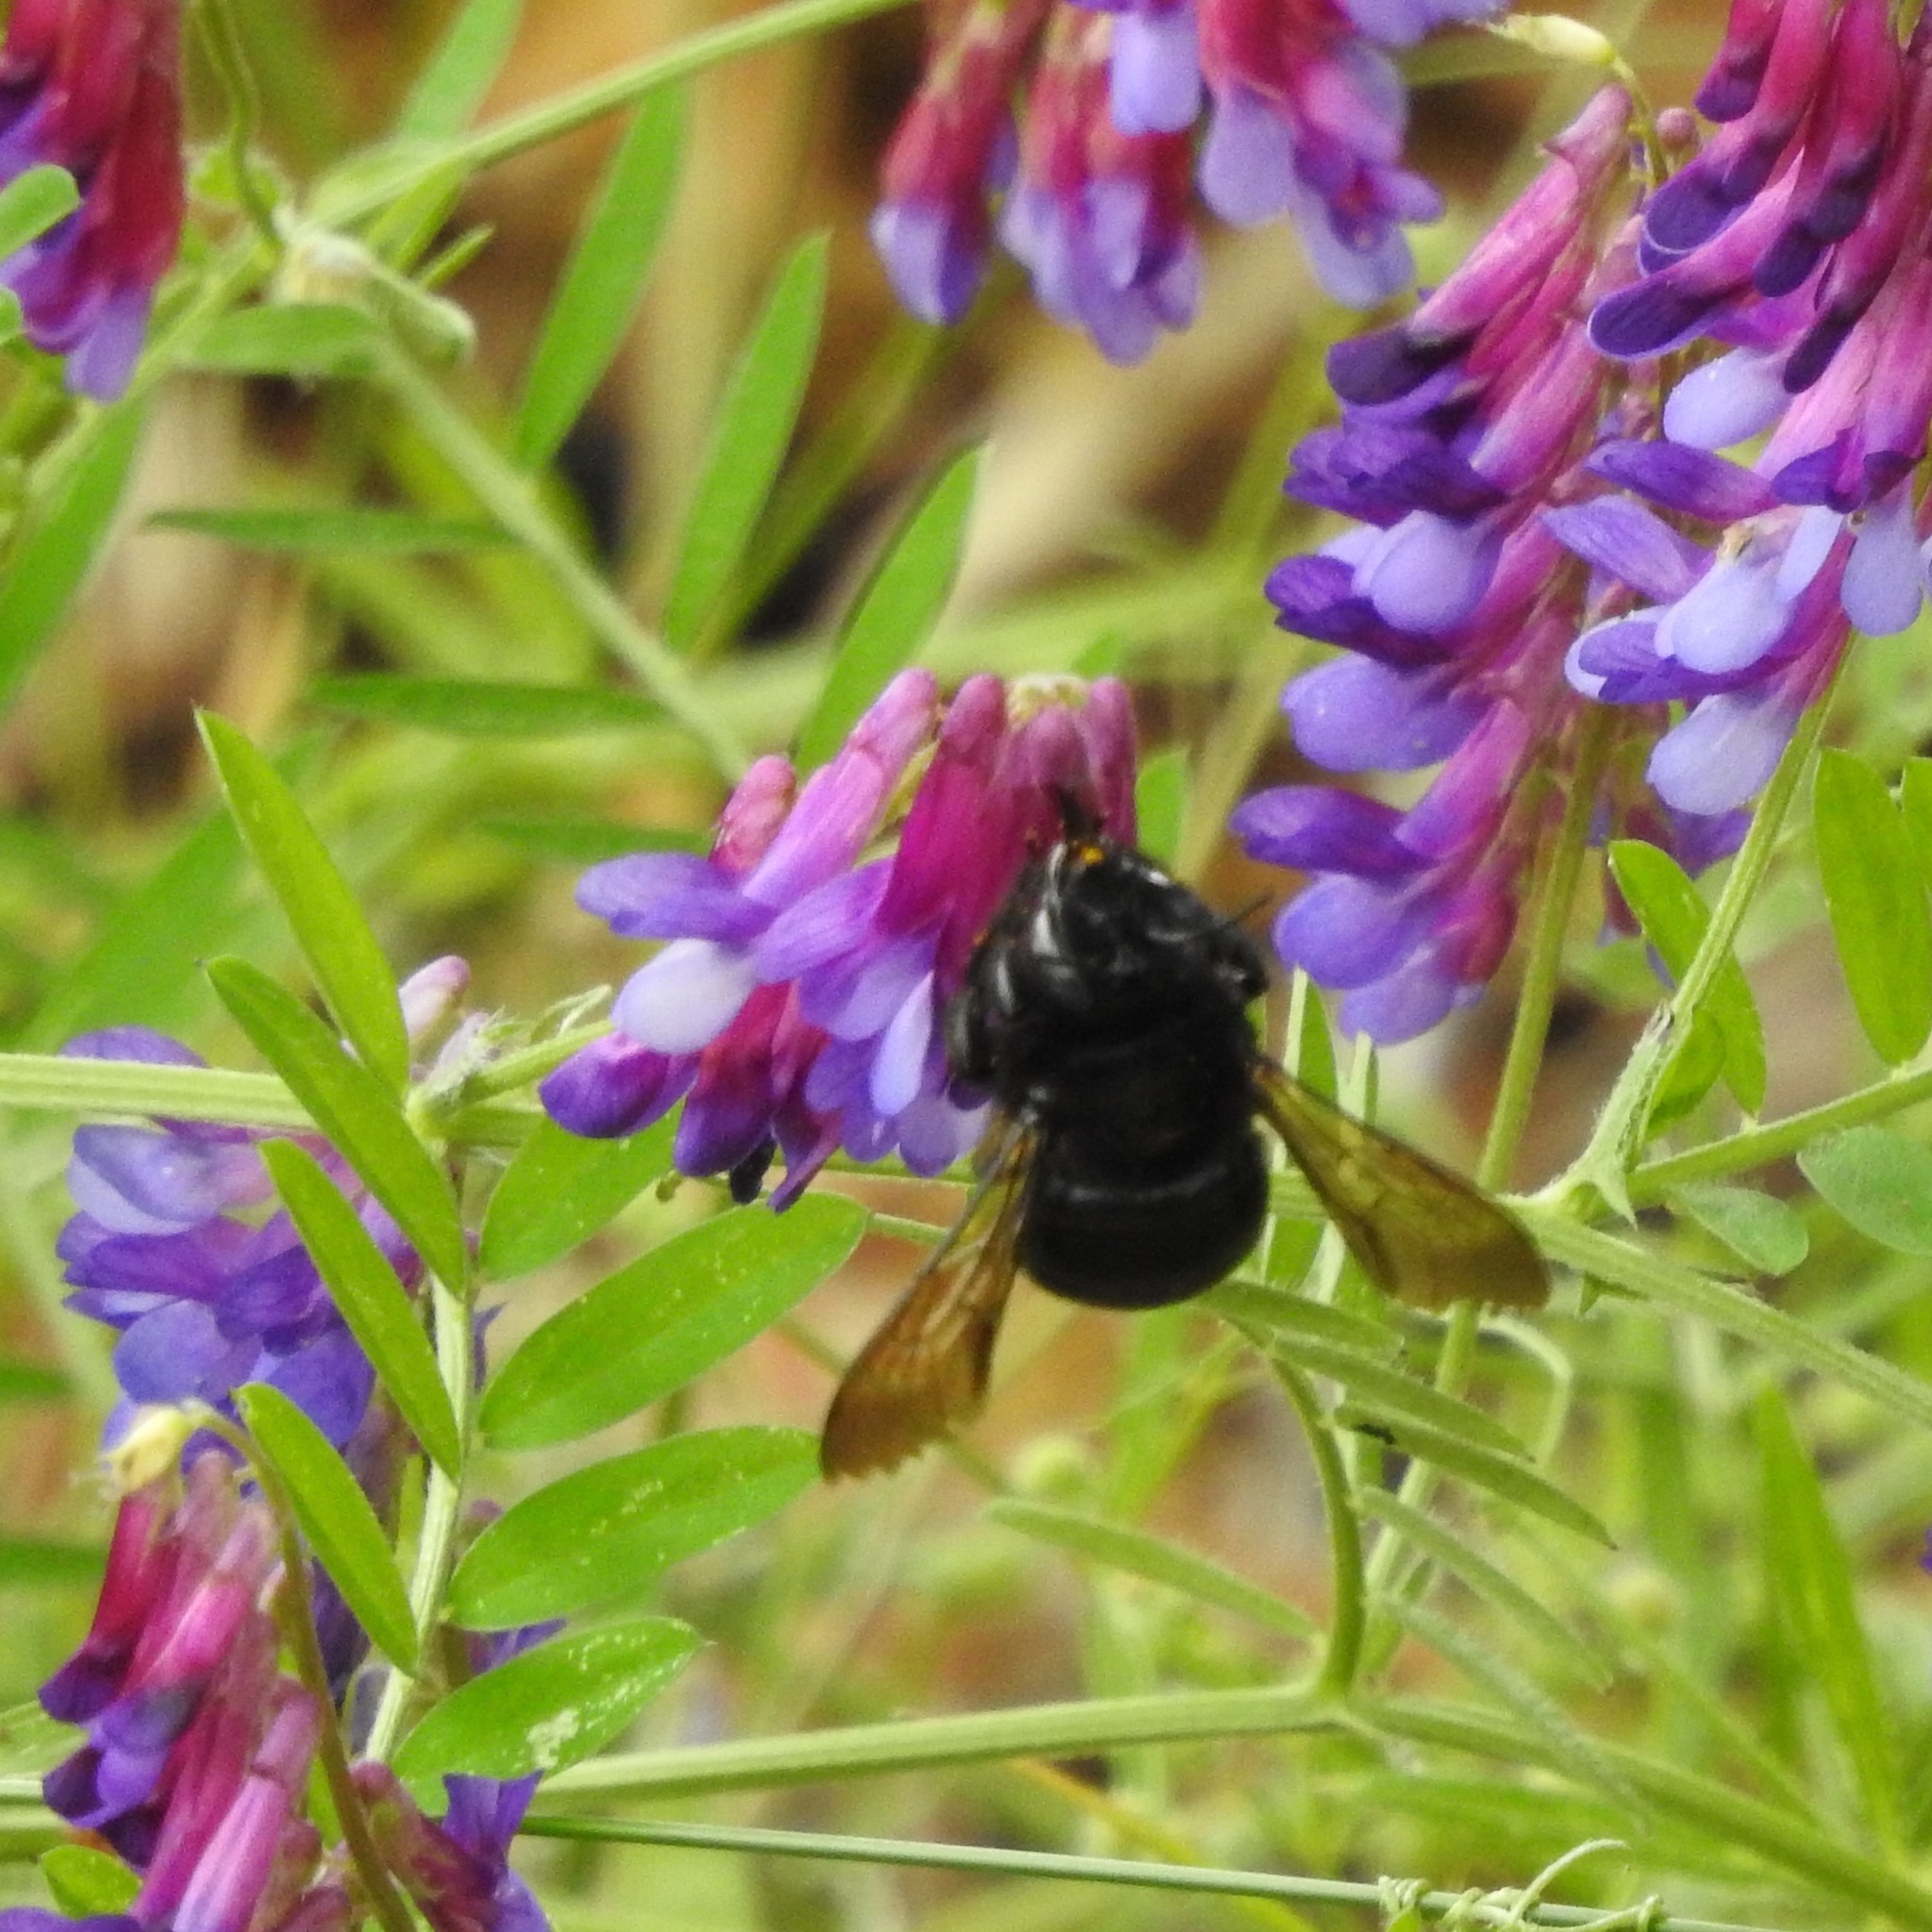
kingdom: Plantae
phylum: Tracheophyta
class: Magnoliopsida
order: Fabales
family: Fabaceae
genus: Vicia
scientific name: Vicia villosa
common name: Fodder vetch
